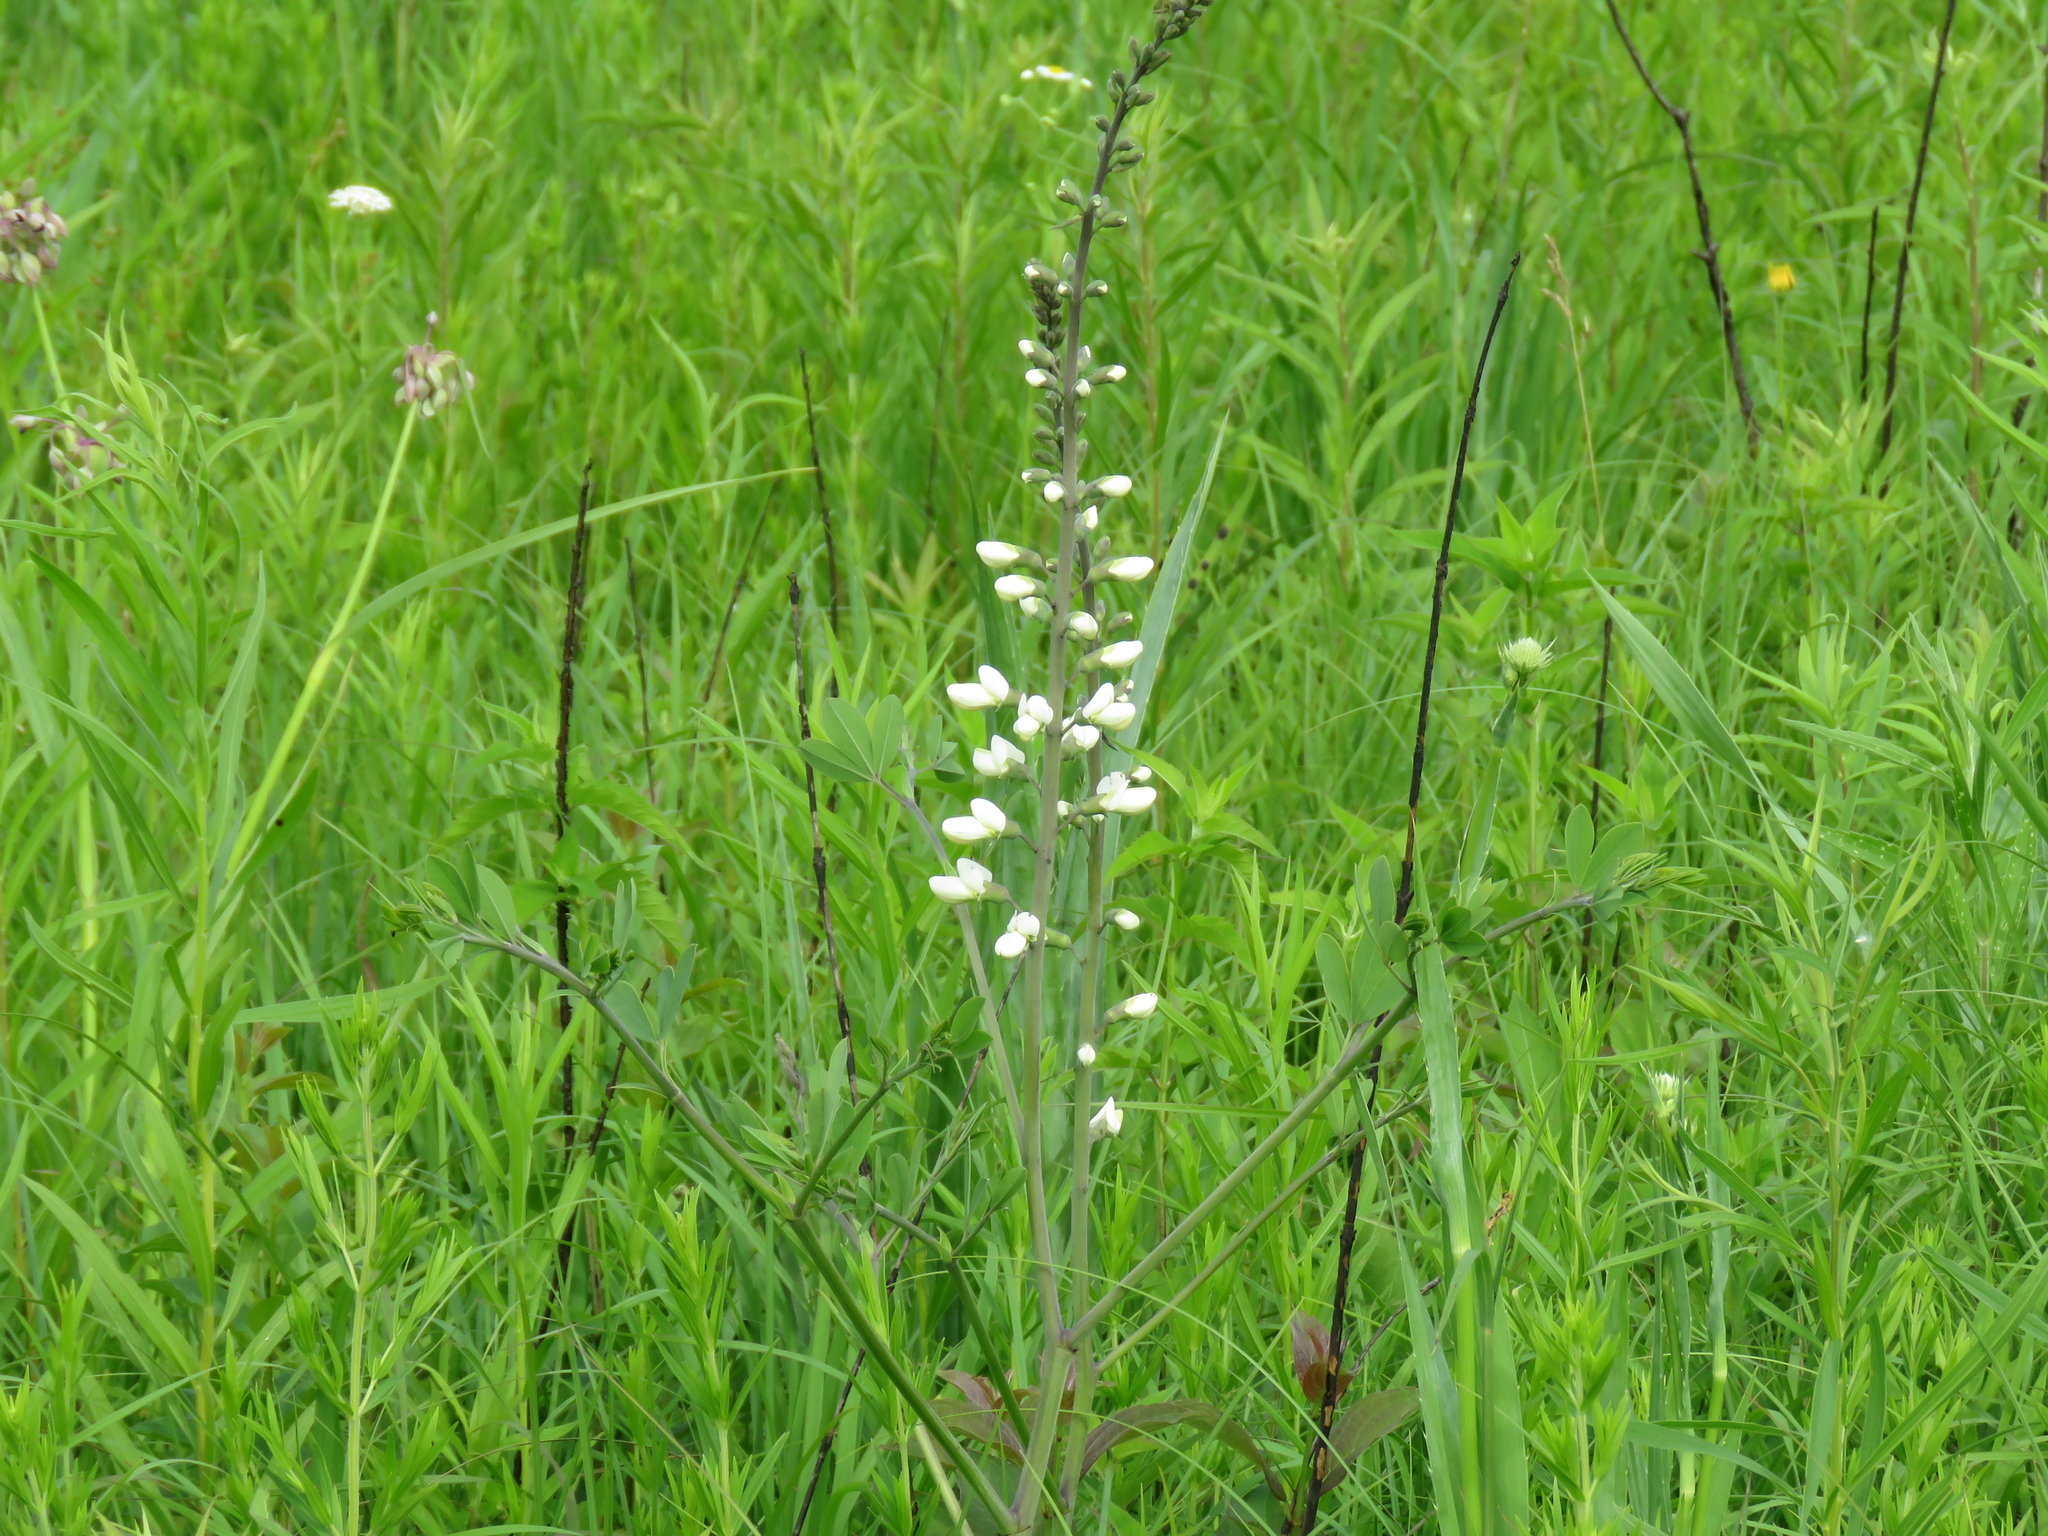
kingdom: Plantae
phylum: Tracheophyta
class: Magnoliopsida
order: Fabales
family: Fabaceae
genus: Baptisia
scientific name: Baptisia alba
